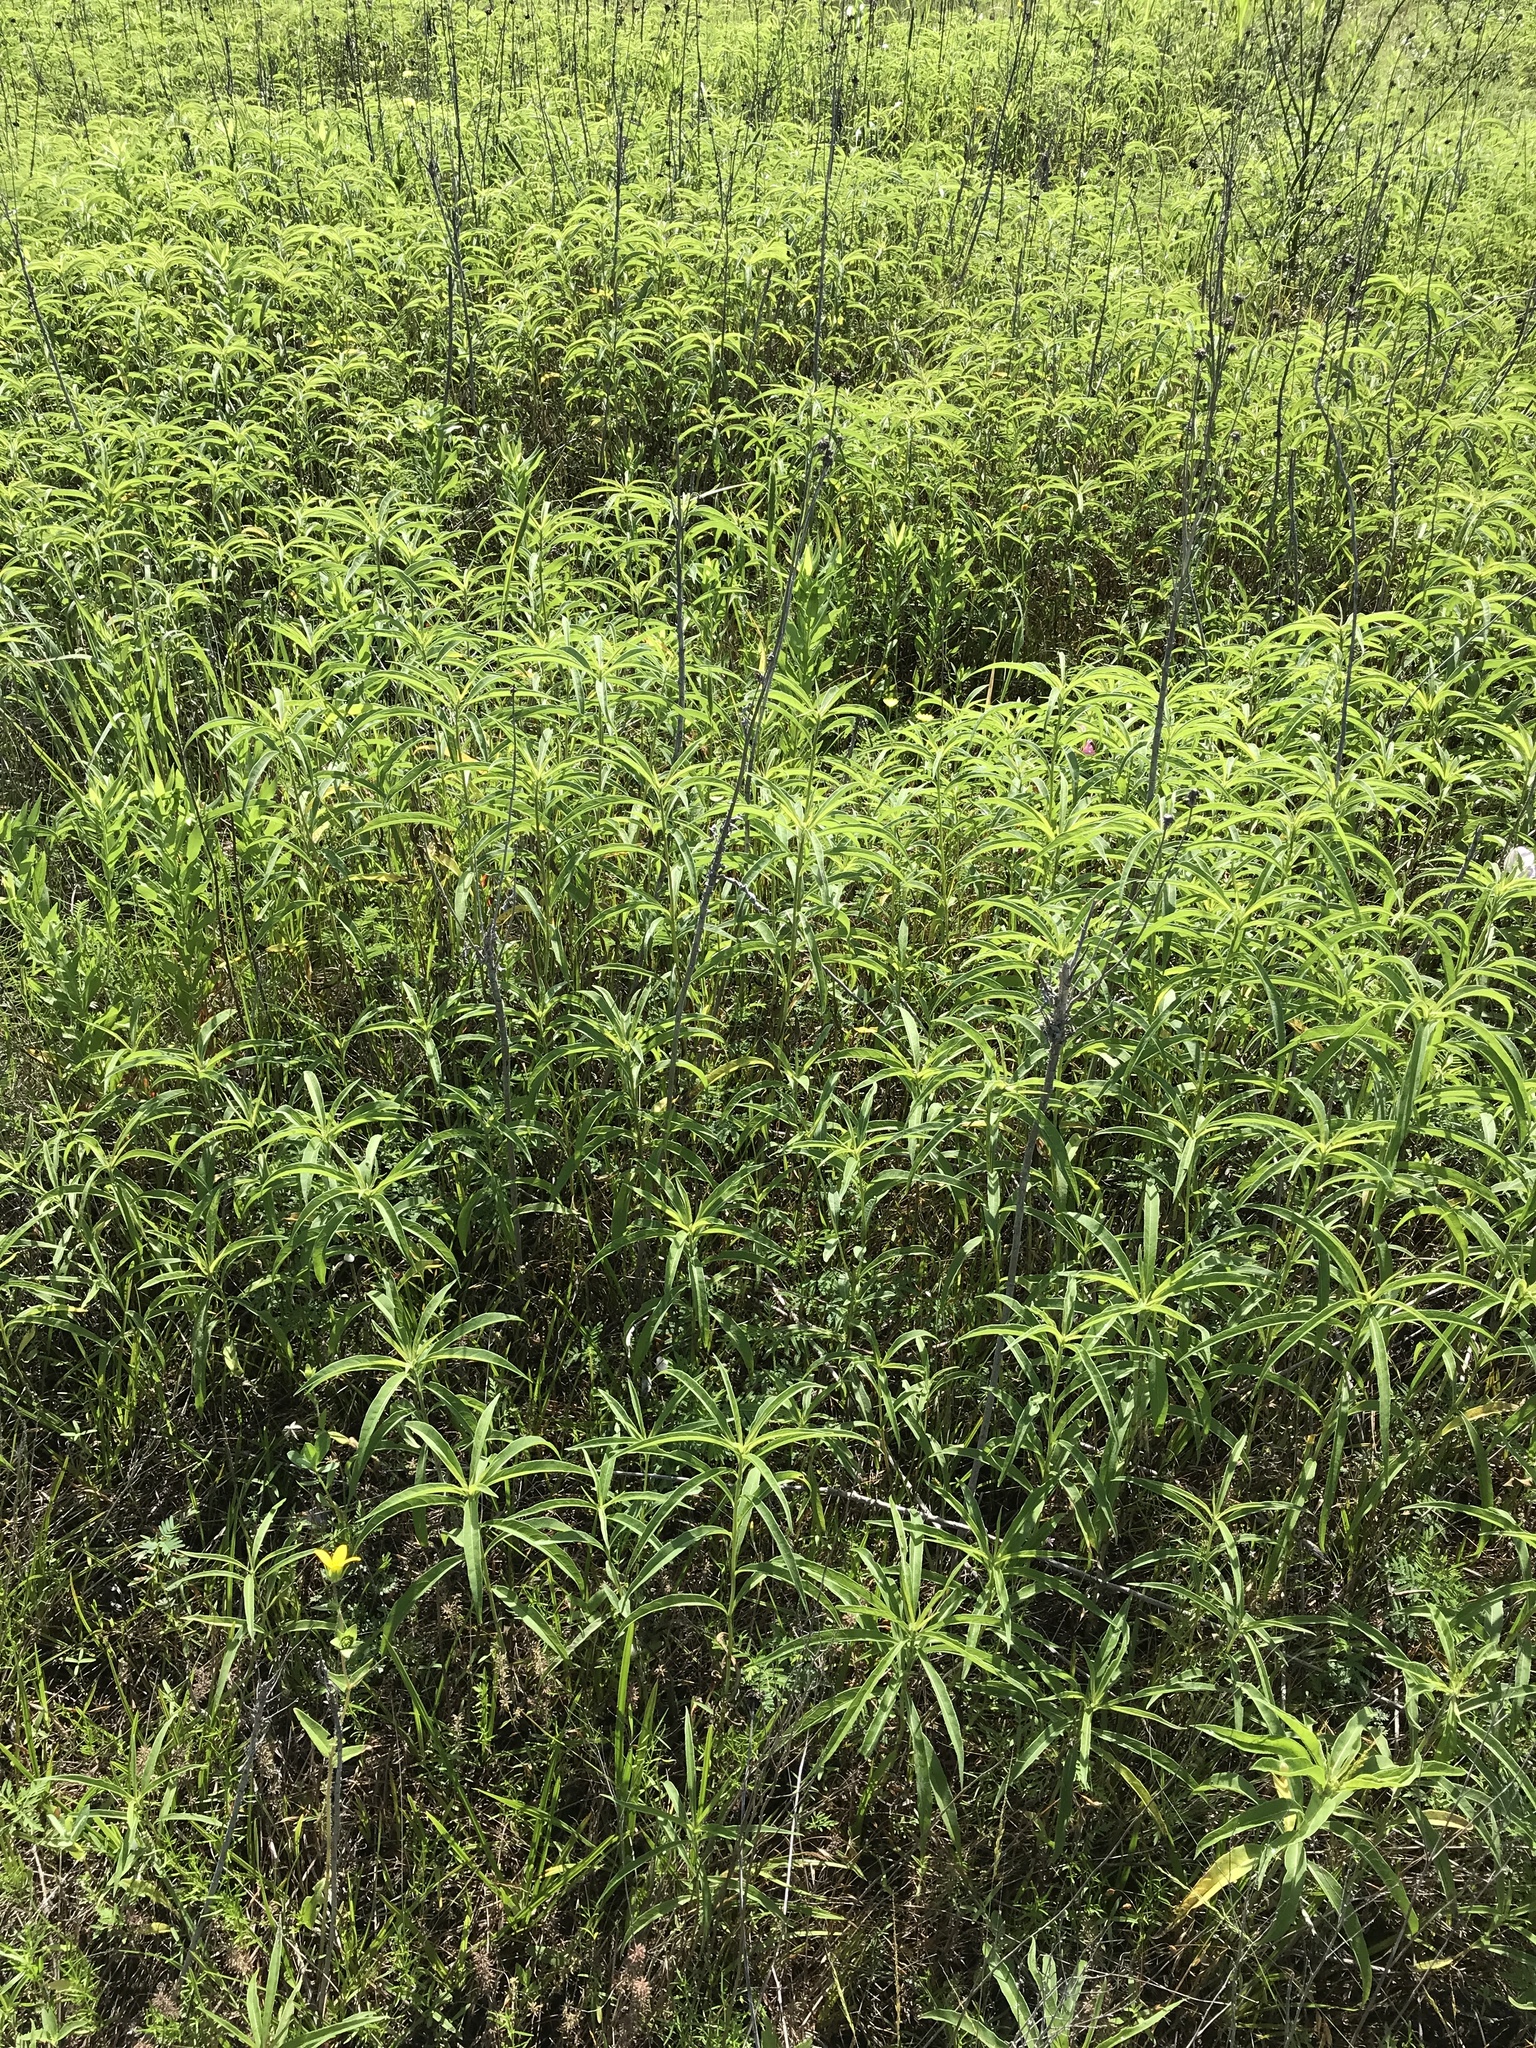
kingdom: Plantae
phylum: Tracheophyta
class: Magnoliopsida
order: Asterales
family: Asteraceae
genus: Helianthus
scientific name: Helianthus maximiliani
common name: Maximilian's sunflower
